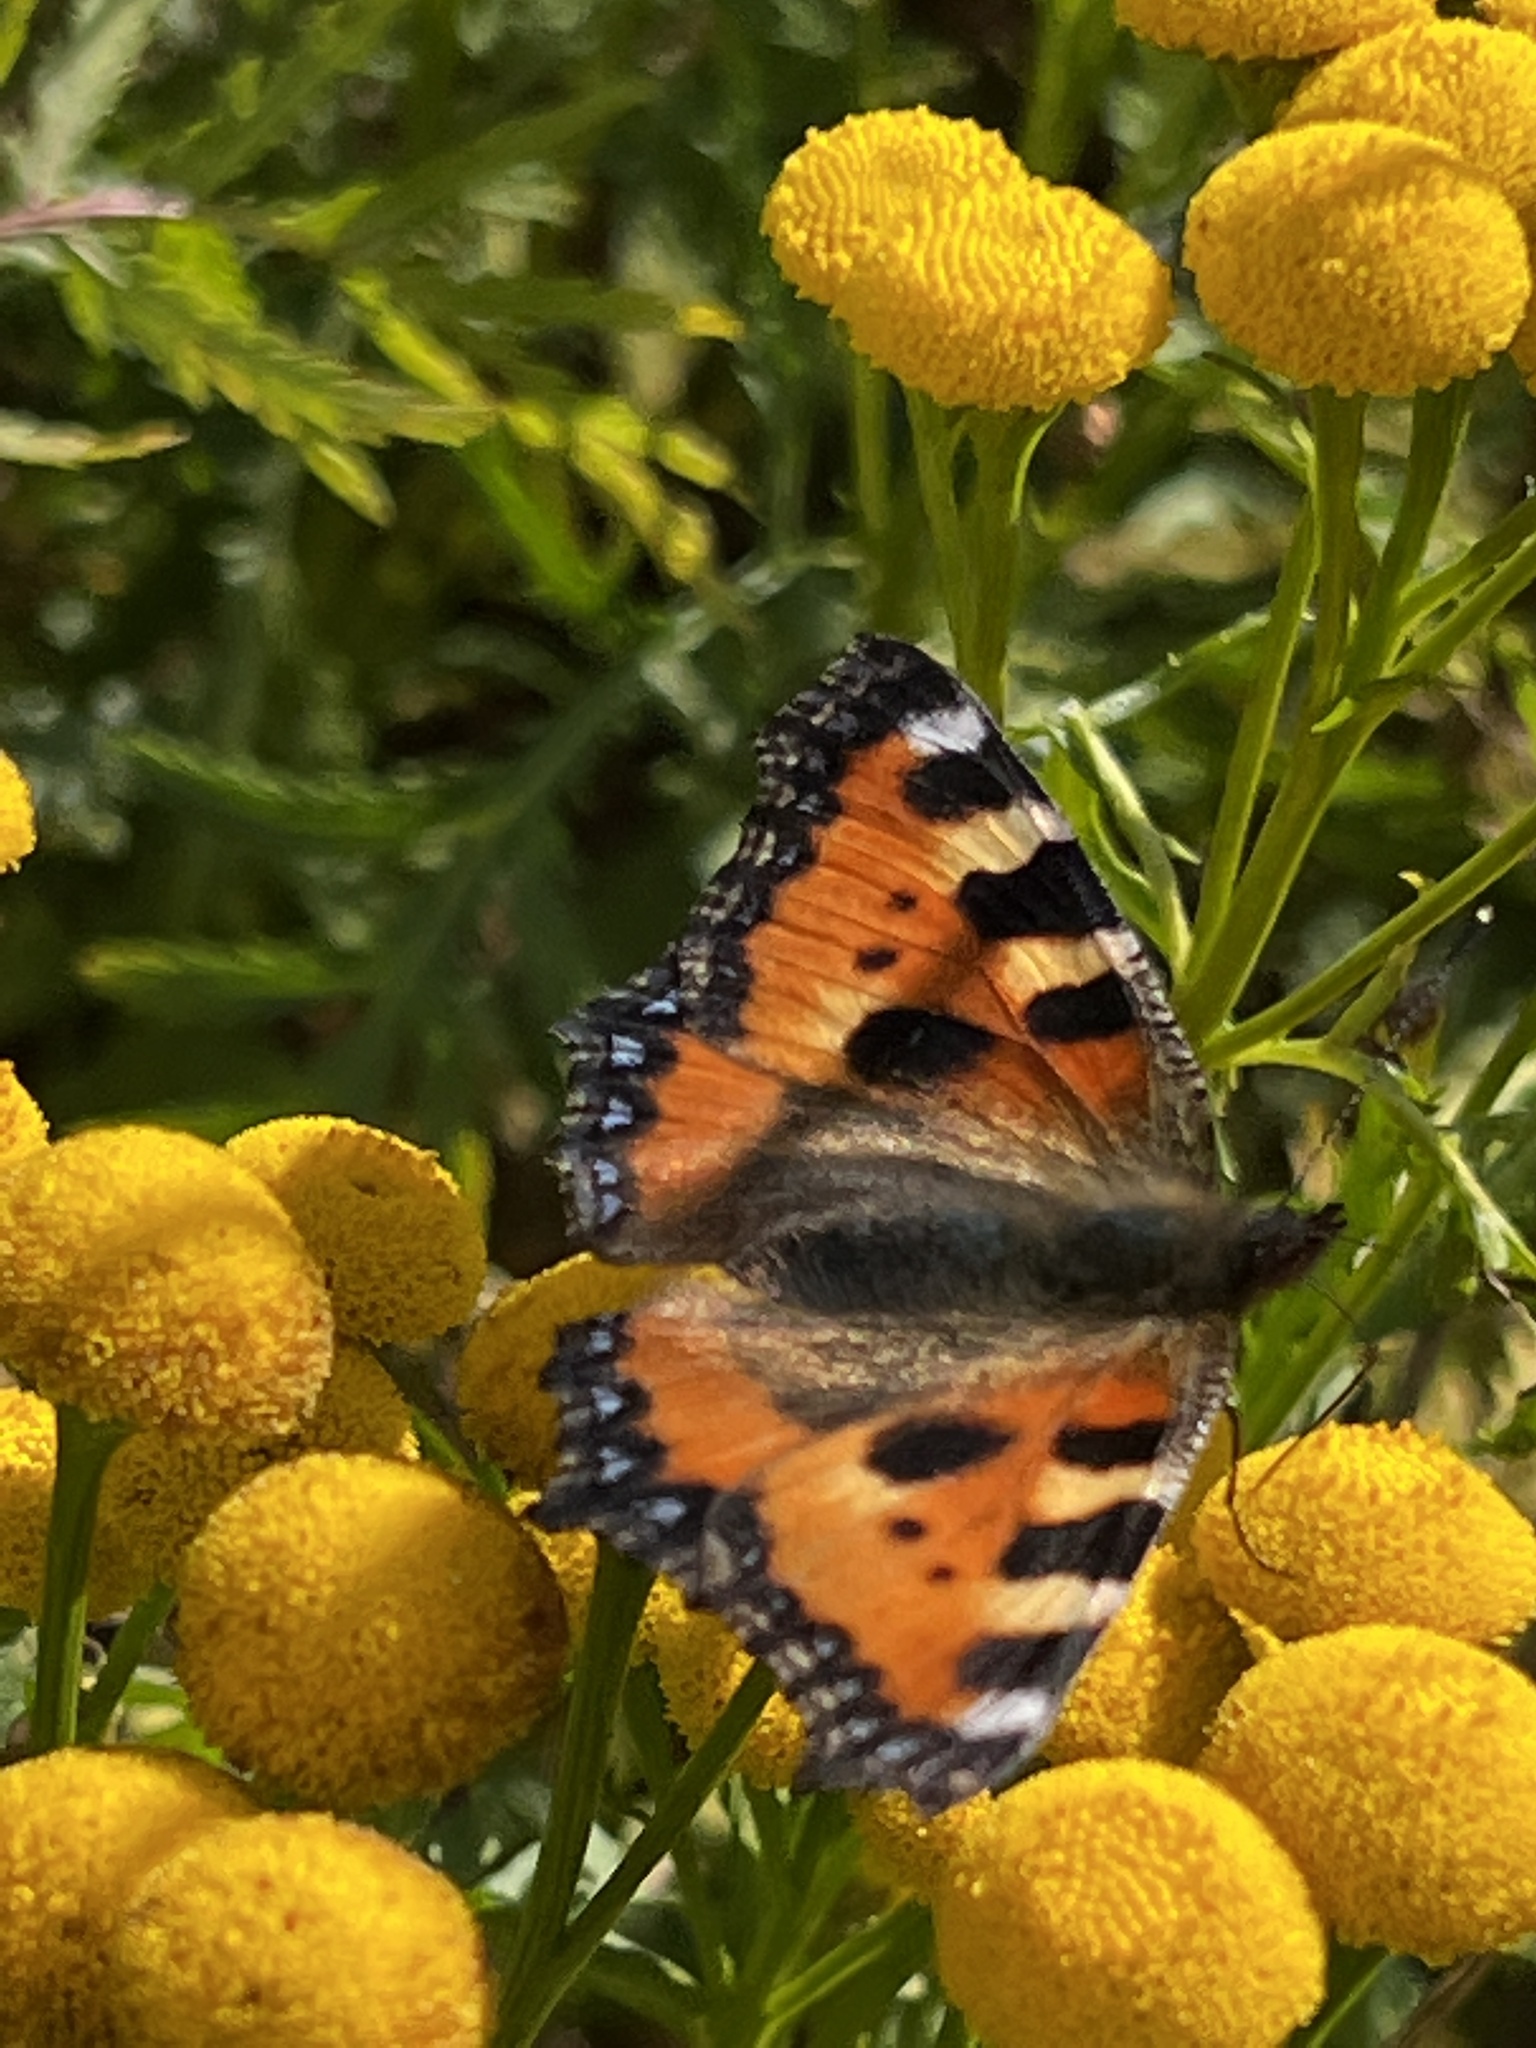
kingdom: Animalia
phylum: Arthropoda
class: Insecta
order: Lepidoptera
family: Nymphalidae
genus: Aglais
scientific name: Aglais urticae
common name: Small tortoiseshell
